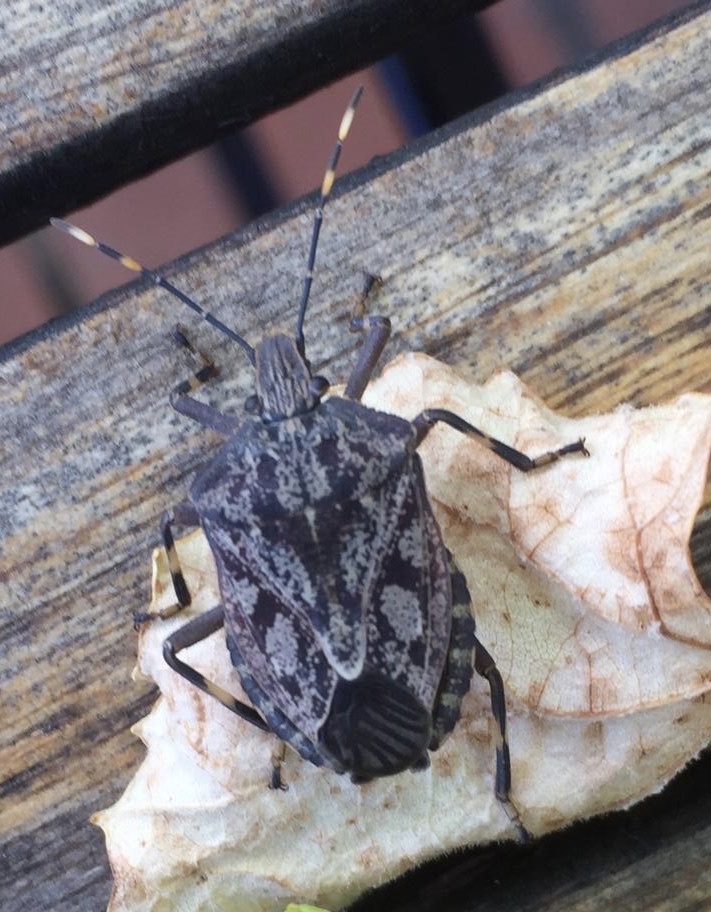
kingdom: Animalia
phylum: Arthropoda
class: Insecta
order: Hemiptera
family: Pentatomidae
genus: Coenomorpha
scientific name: Coenomorpha nervosa
